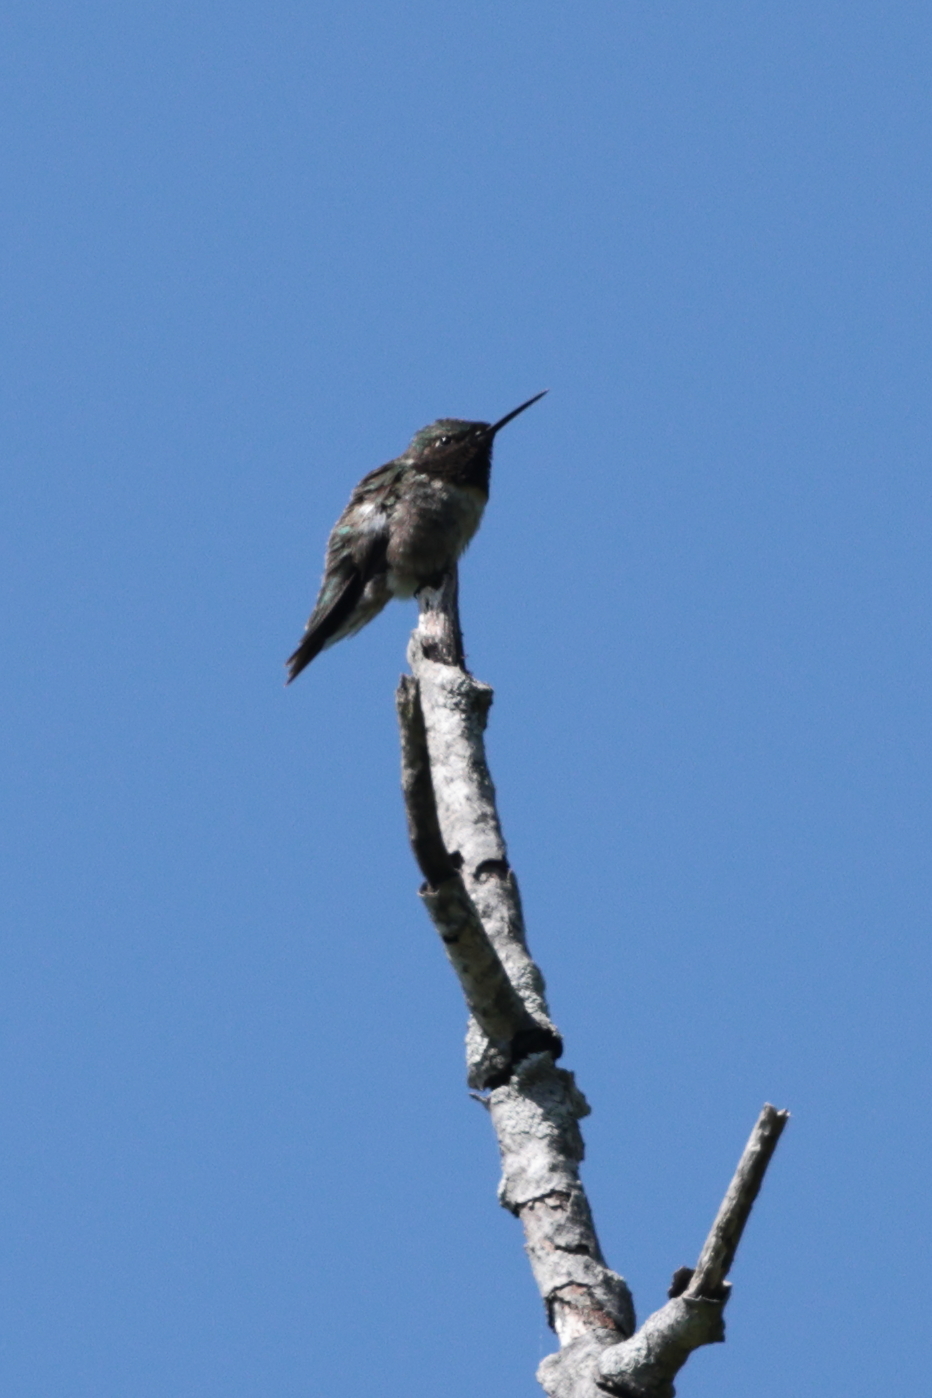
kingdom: Animalia
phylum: Chordata
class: Aves
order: Apodiformes
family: Trochilidae
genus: Archilochus
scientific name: Archilochus colubris
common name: Ruby-throated hummingbird
